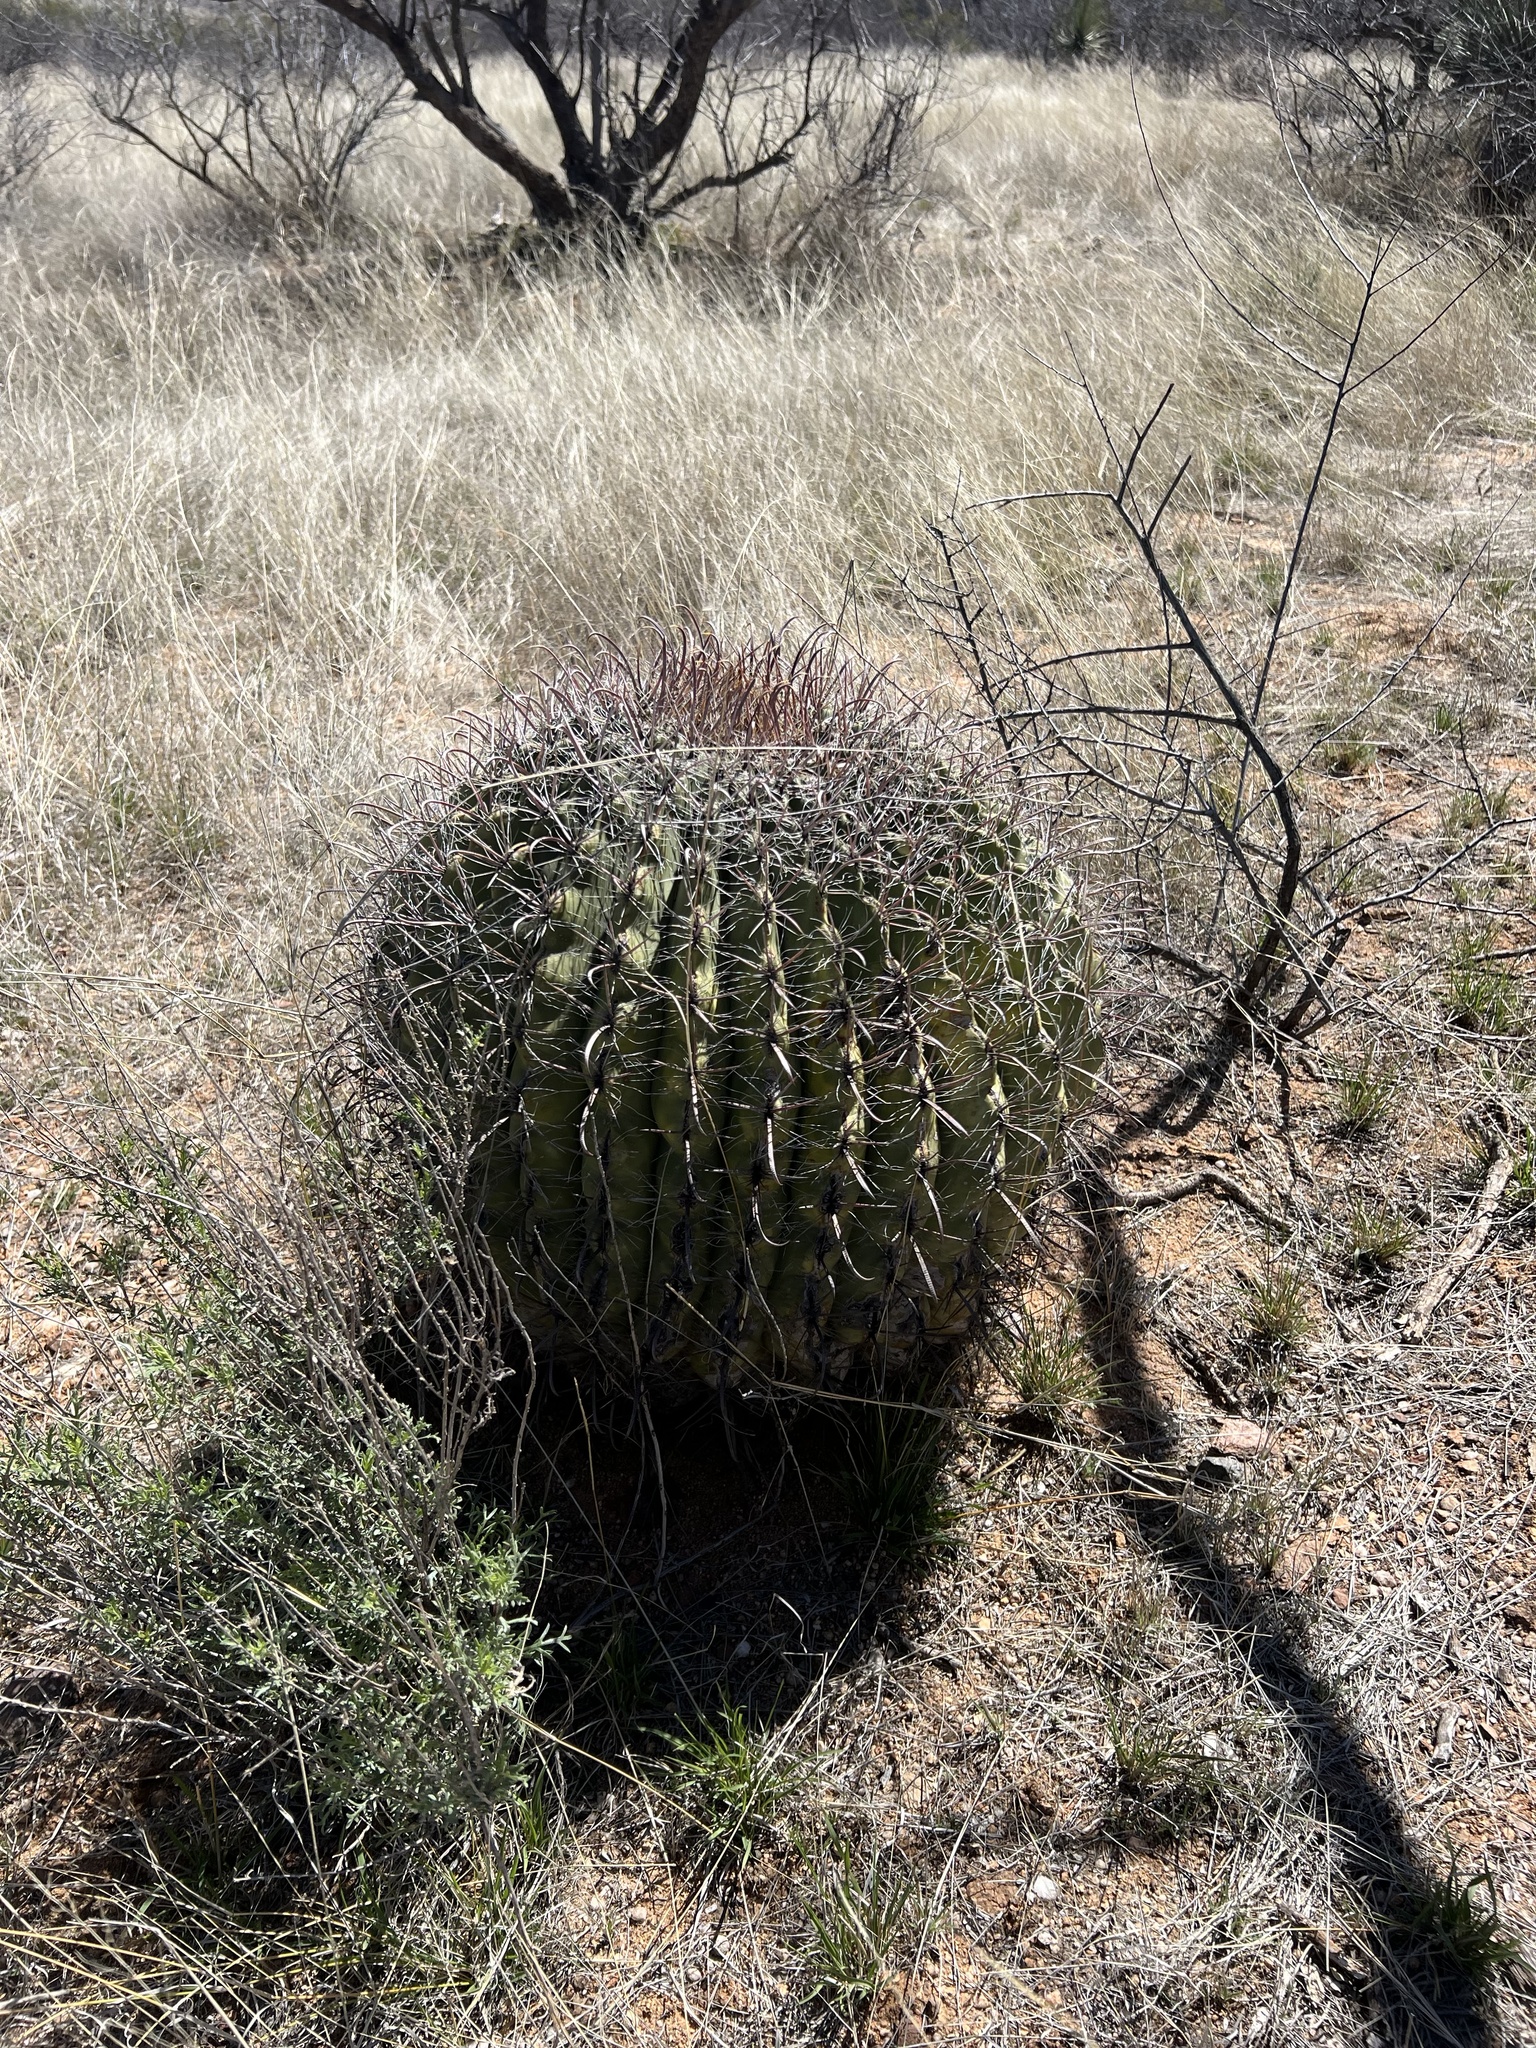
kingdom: Plantae
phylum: Tracheophyta
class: Magnoliopsida
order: Caryophyllales
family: Cactaceae
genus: Ferocactus
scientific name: Ferocactus wislizeni
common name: Candy barrel cactus
